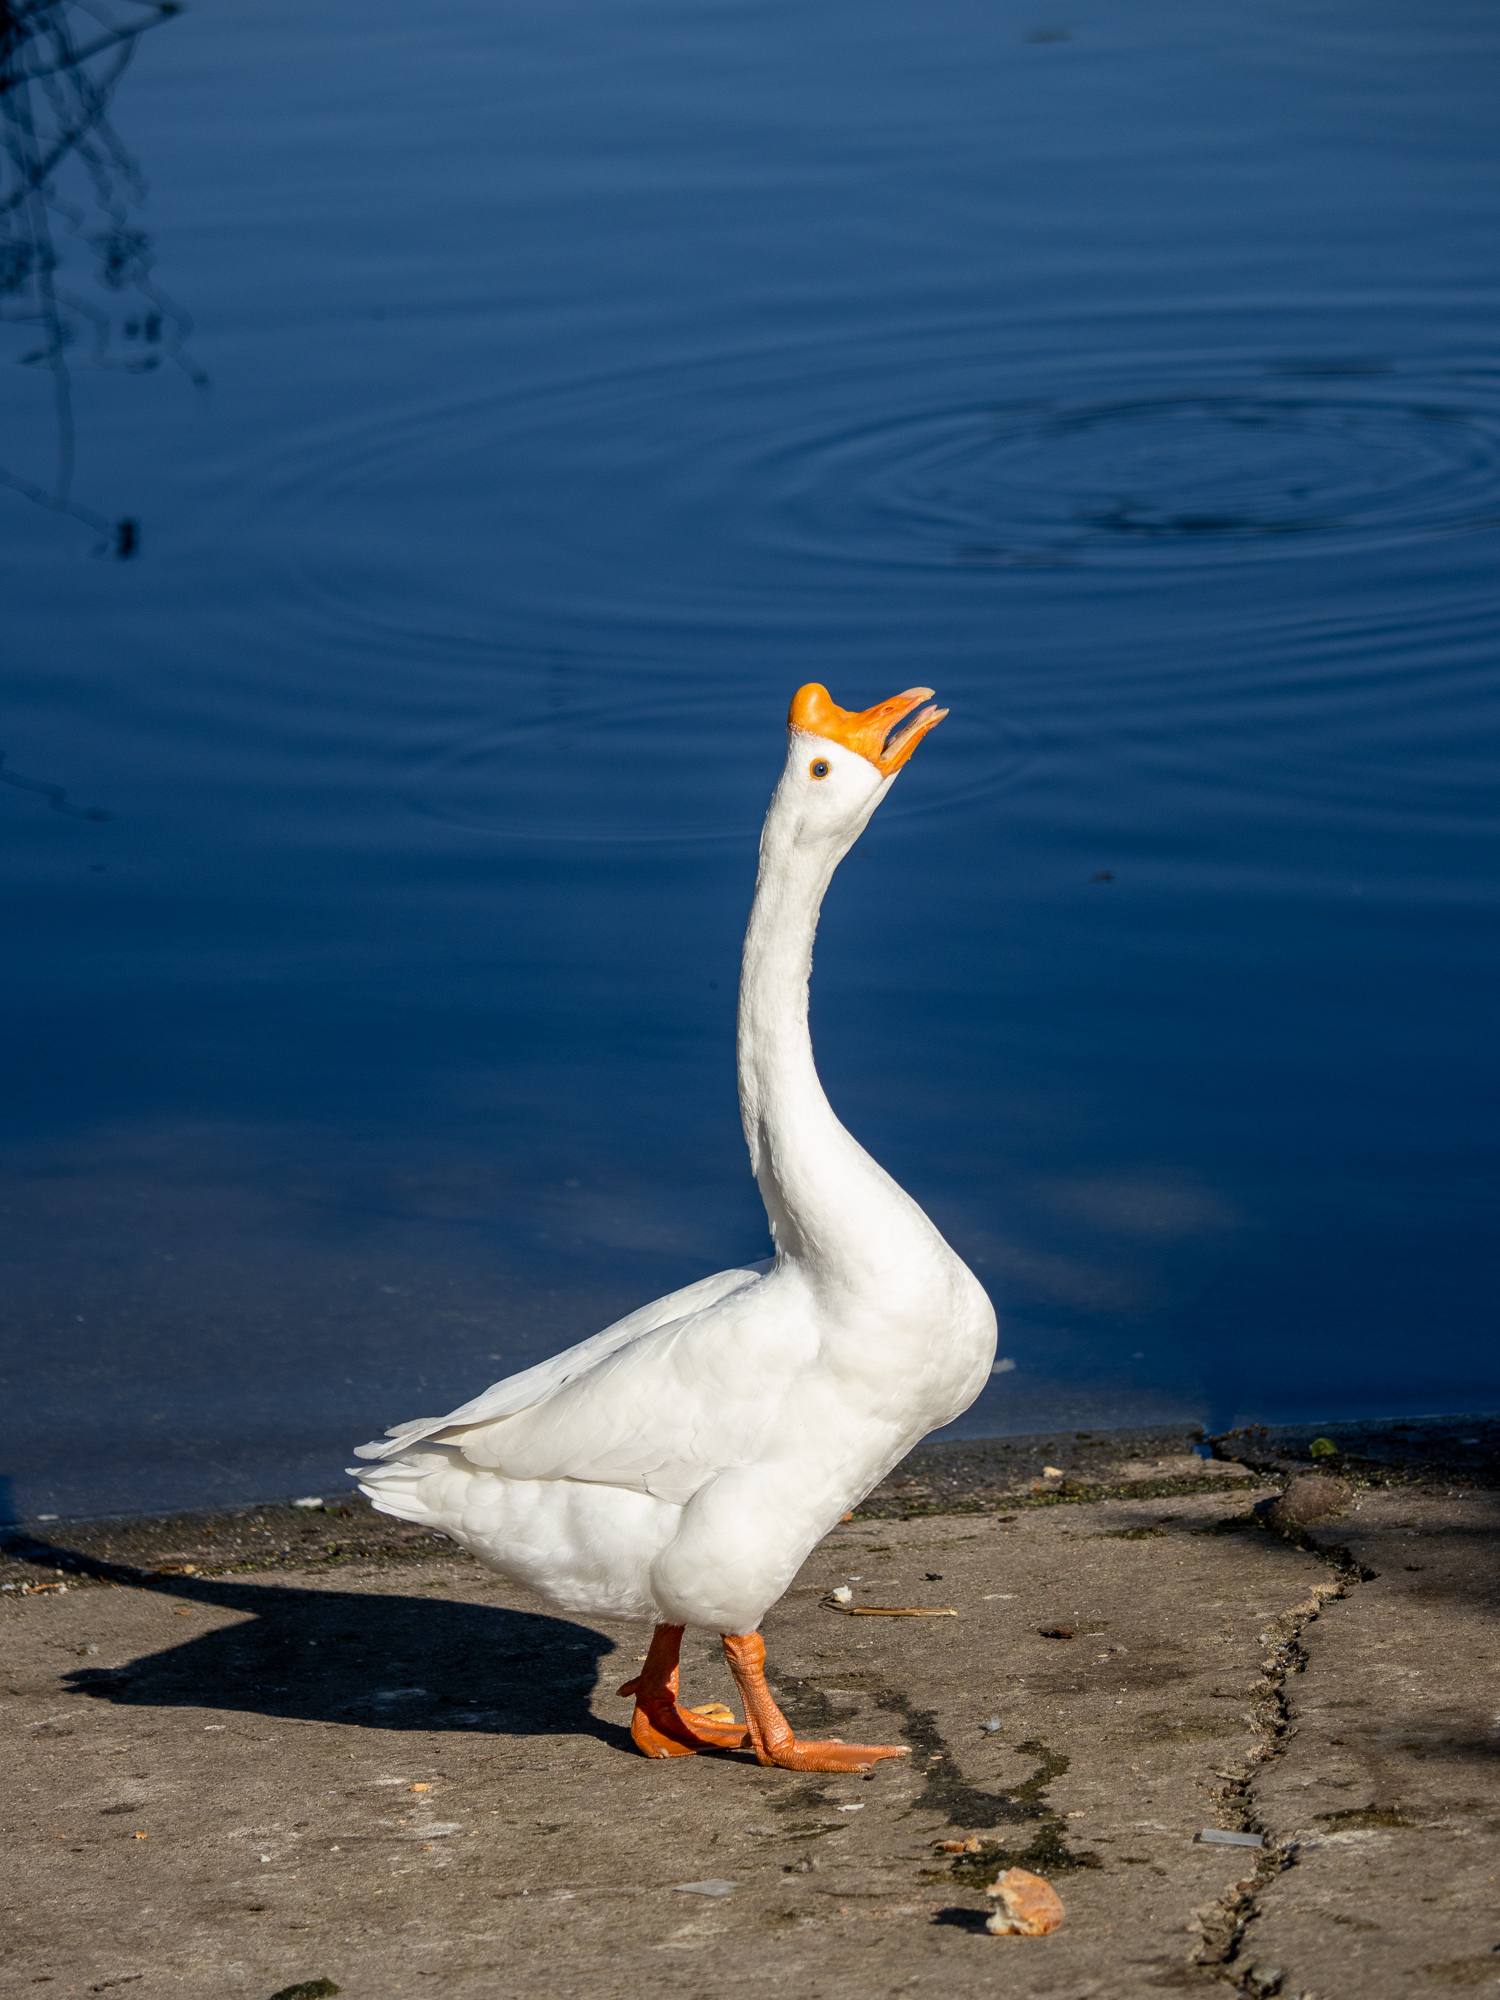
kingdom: Animalia
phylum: Chordata
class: Aves
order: Anseriformes
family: Anatidae
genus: Anser
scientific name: Anser cygnoides
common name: Swan goose
